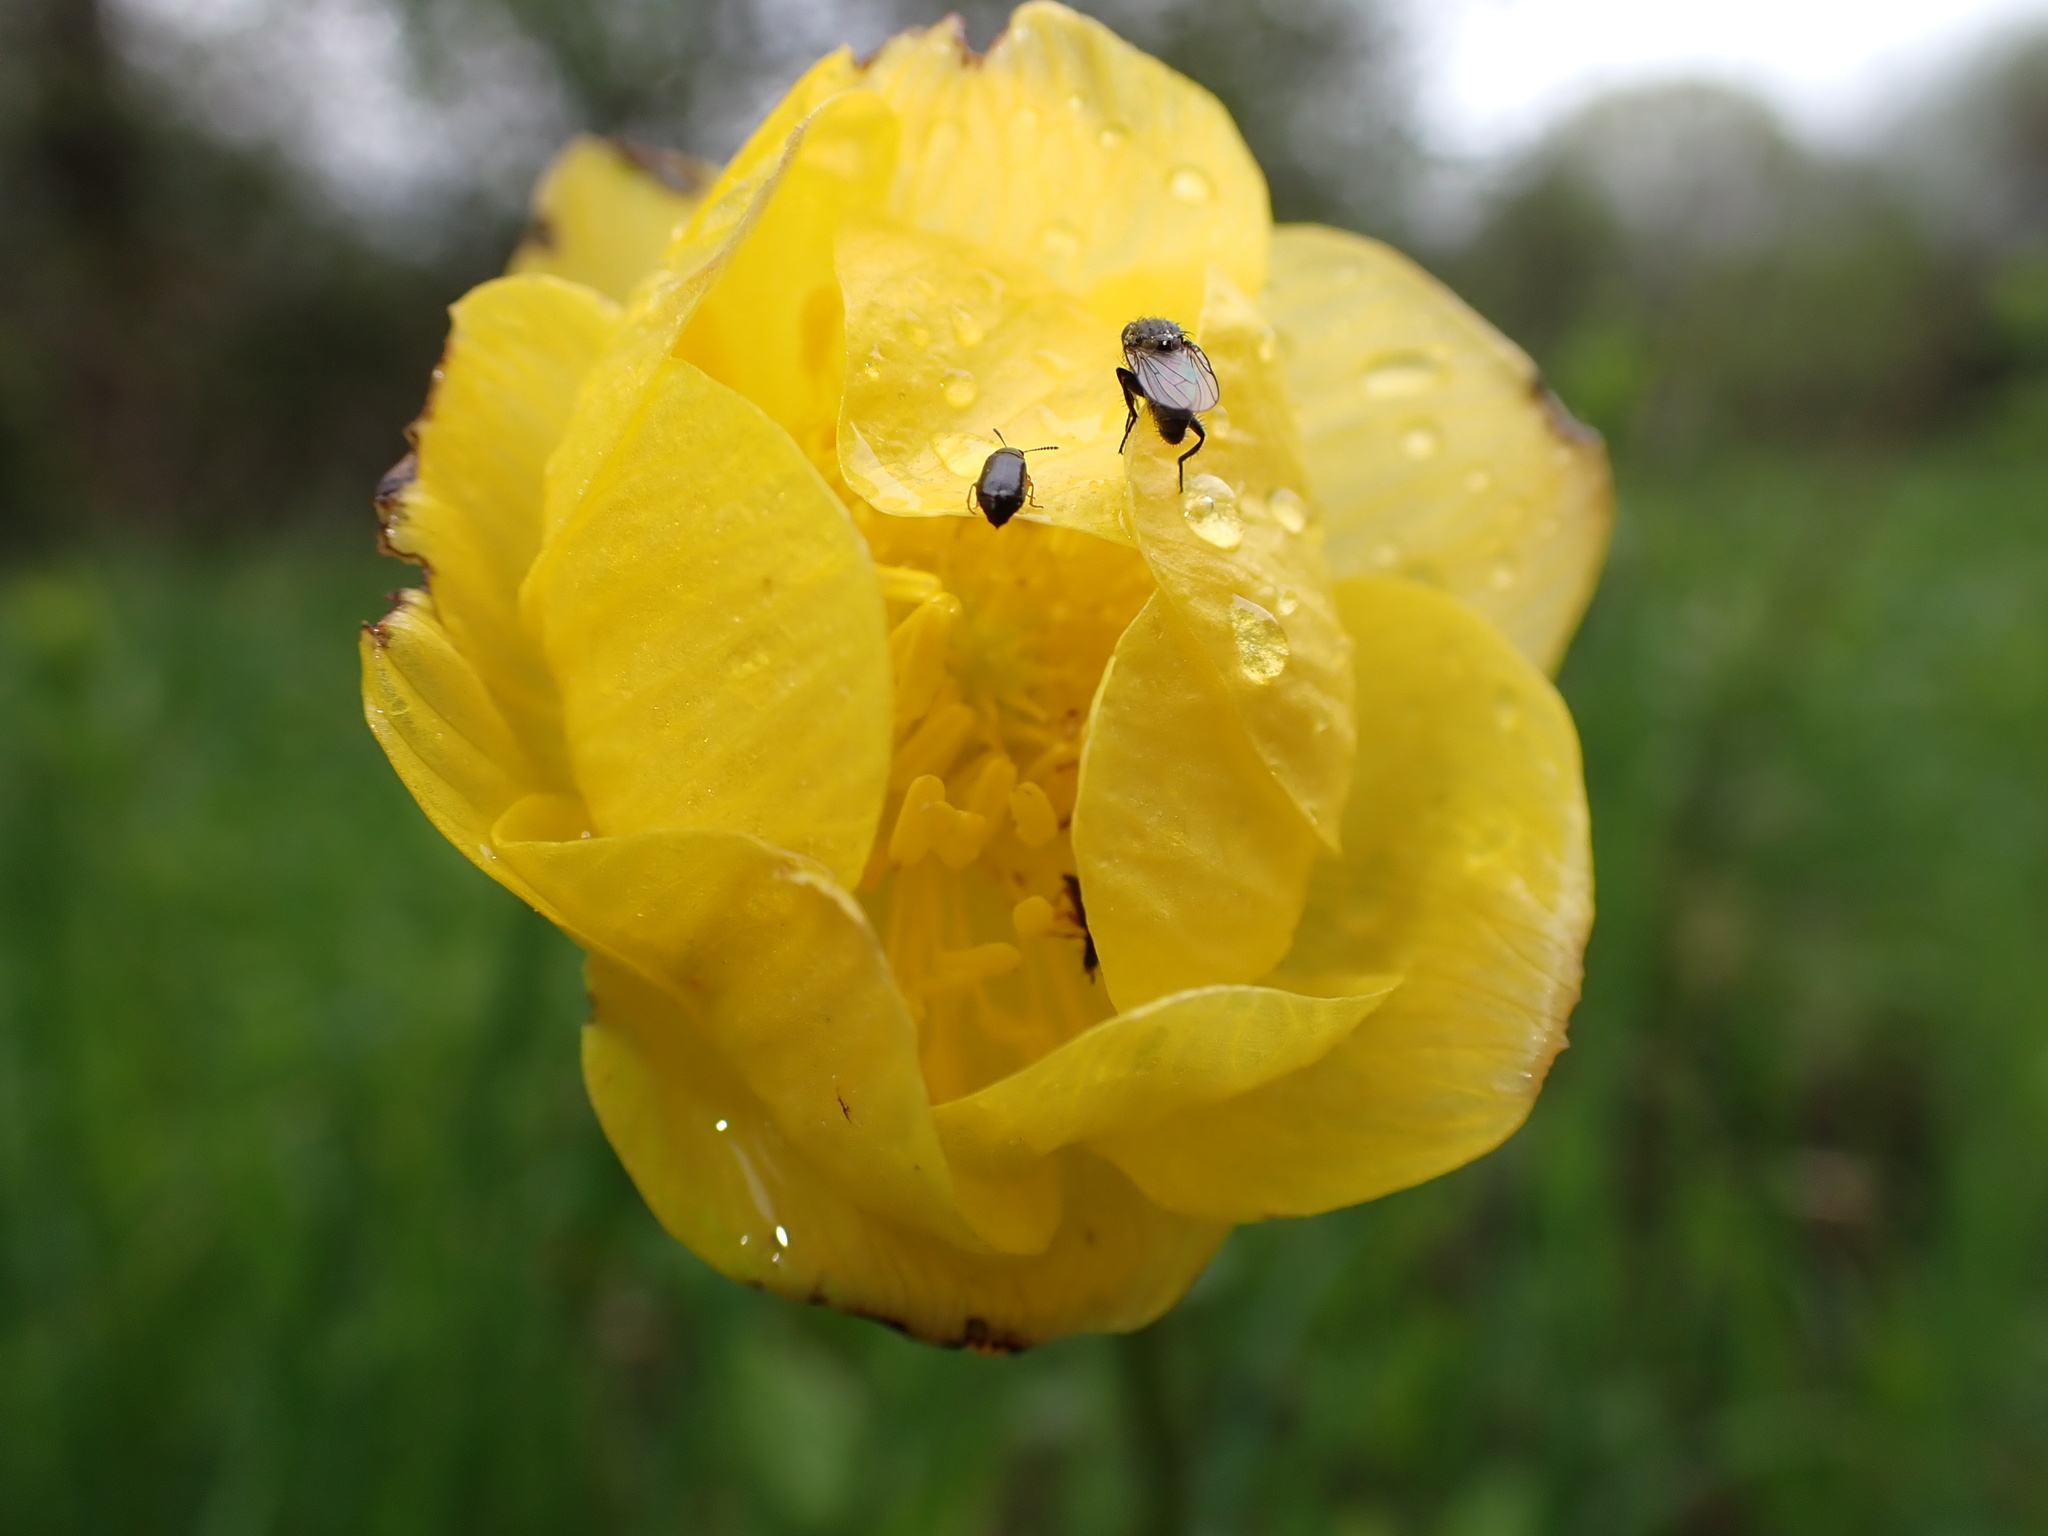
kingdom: Plantae
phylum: Tracheophyta
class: Magnoliopsida
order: Ranunculales
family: Ranunculaceae
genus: Trollius
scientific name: Trollius europaeus
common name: European globeflower
